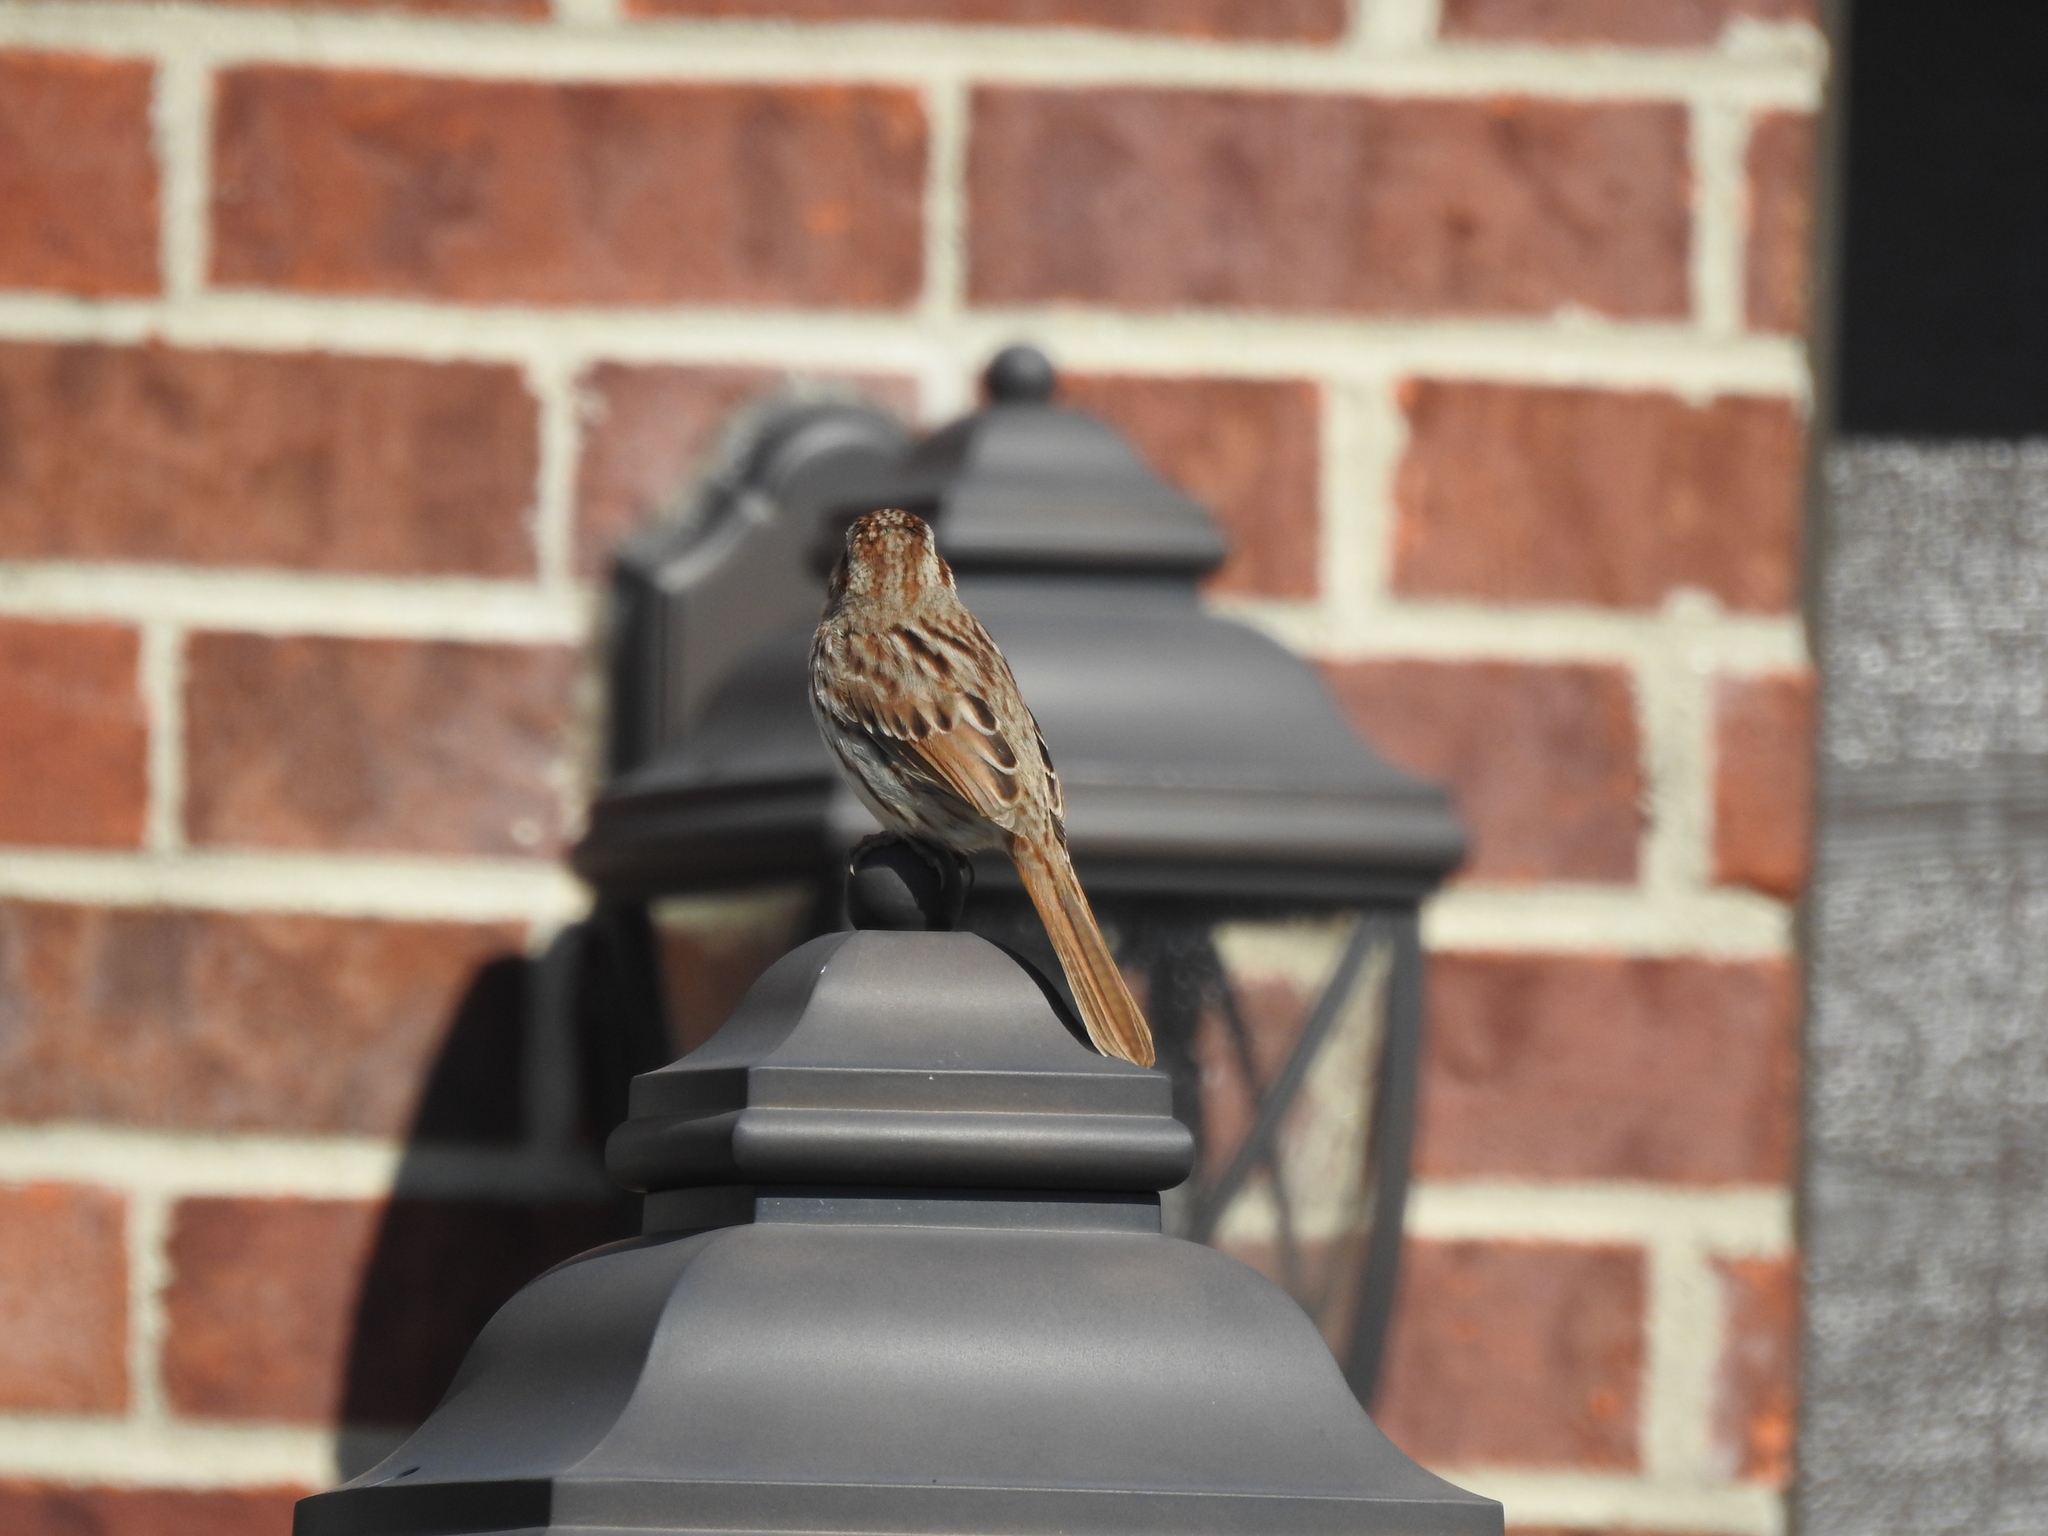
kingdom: Animalia
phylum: Chordata
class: Aves
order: Passeriformes
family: Passerellidae
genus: Melospiza
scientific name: Melospiza melodia
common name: Song sparrow
